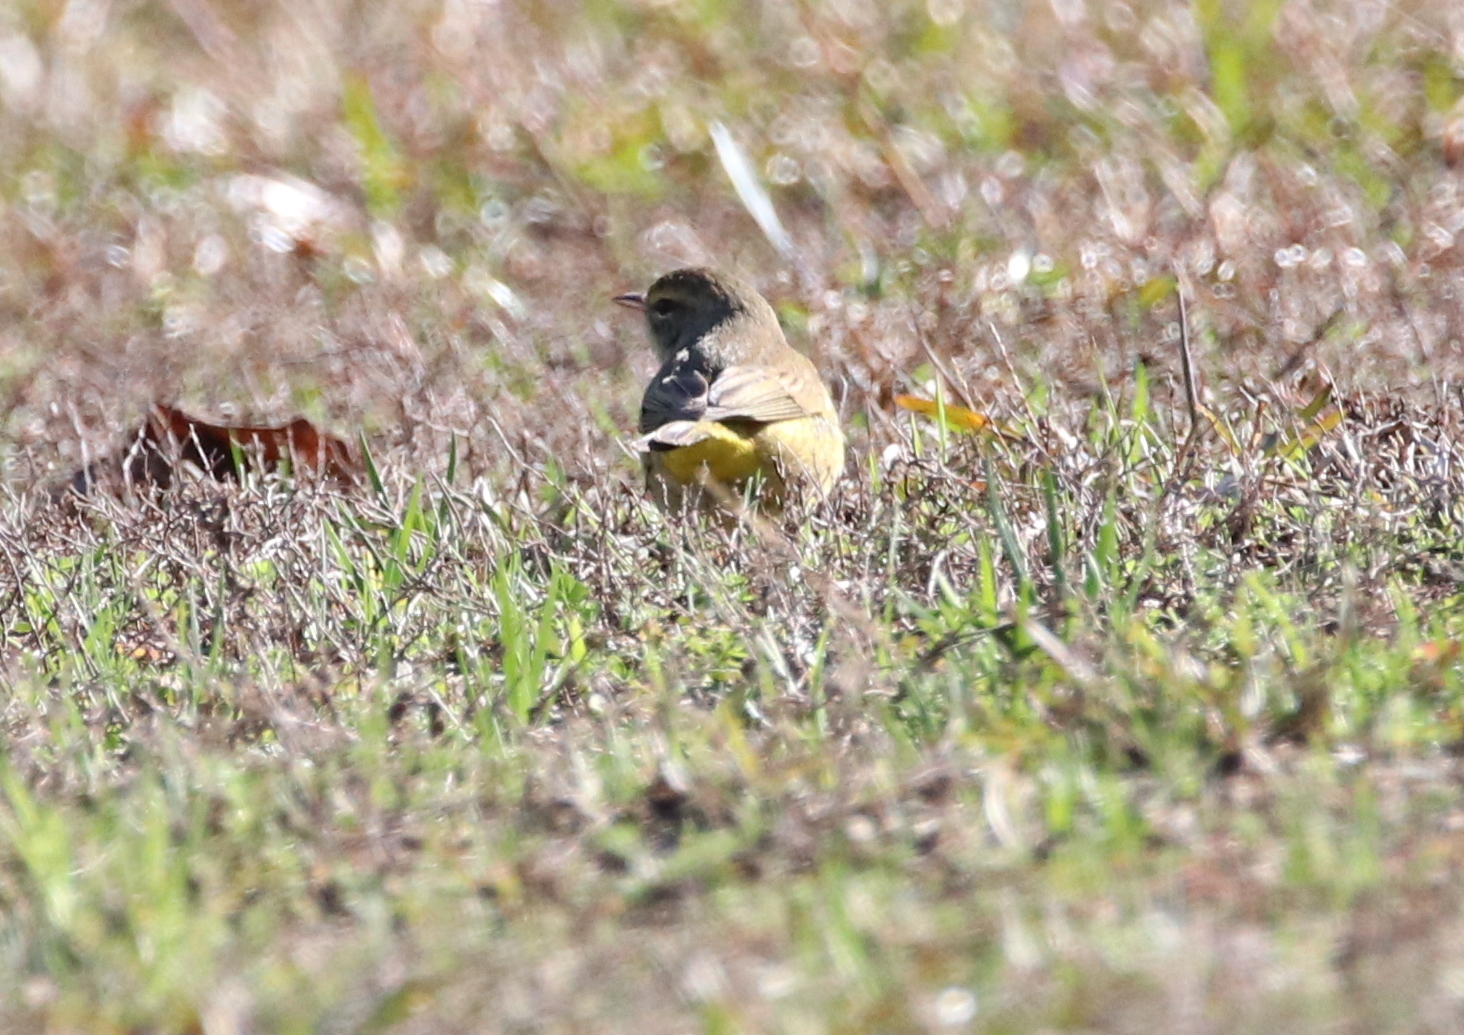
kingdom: Animalia
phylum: Chordata
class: Aves
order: Passeriformes
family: Parulidae
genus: Setophaga
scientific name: Setophaga palmarum
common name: Palm warbler
